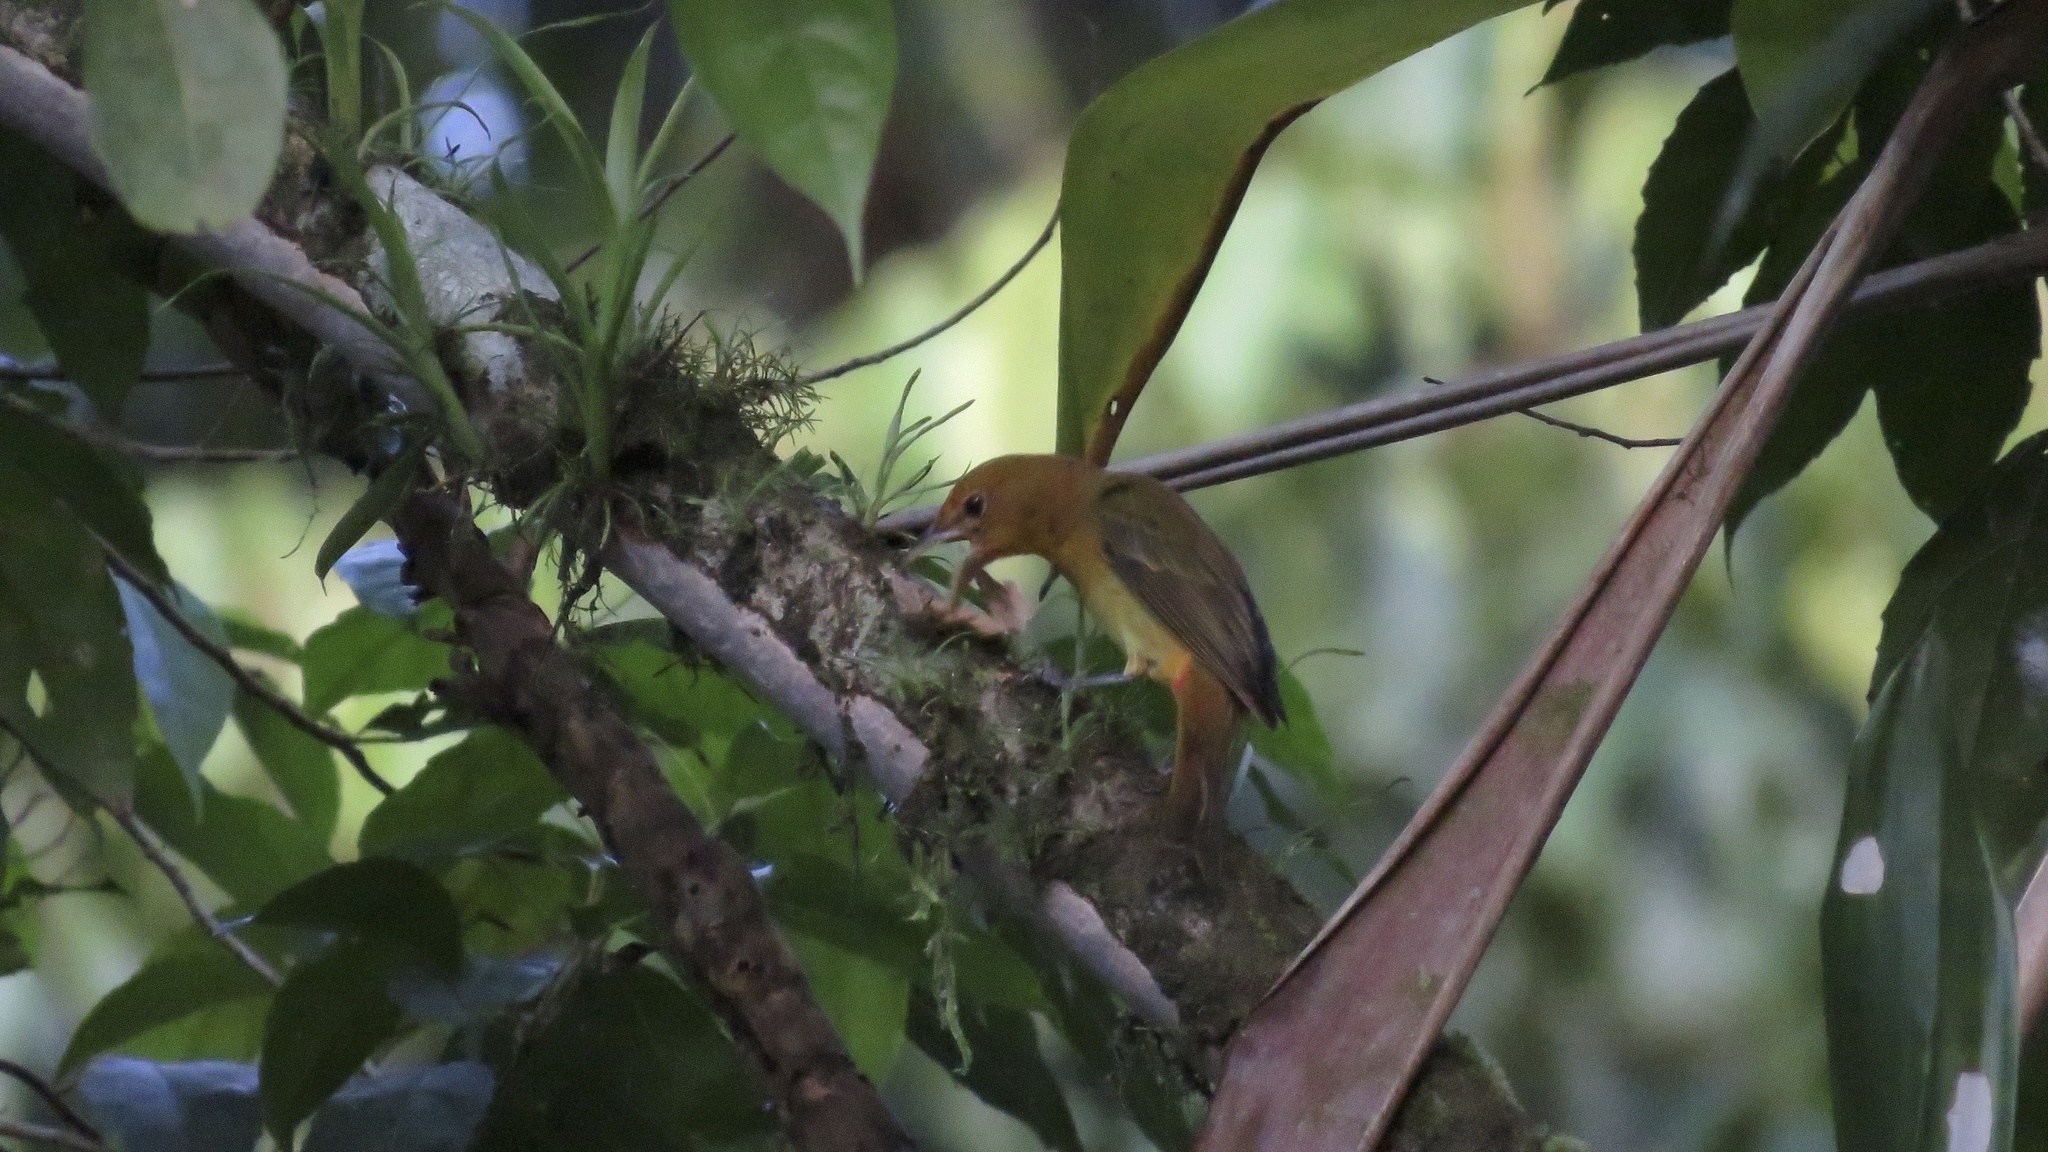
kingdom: Animalia
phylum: Chordata
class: Aves
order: Passeriformes
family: Cardinalidae
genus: Piranga
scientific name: Piranga rubra
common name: Summer tanager
